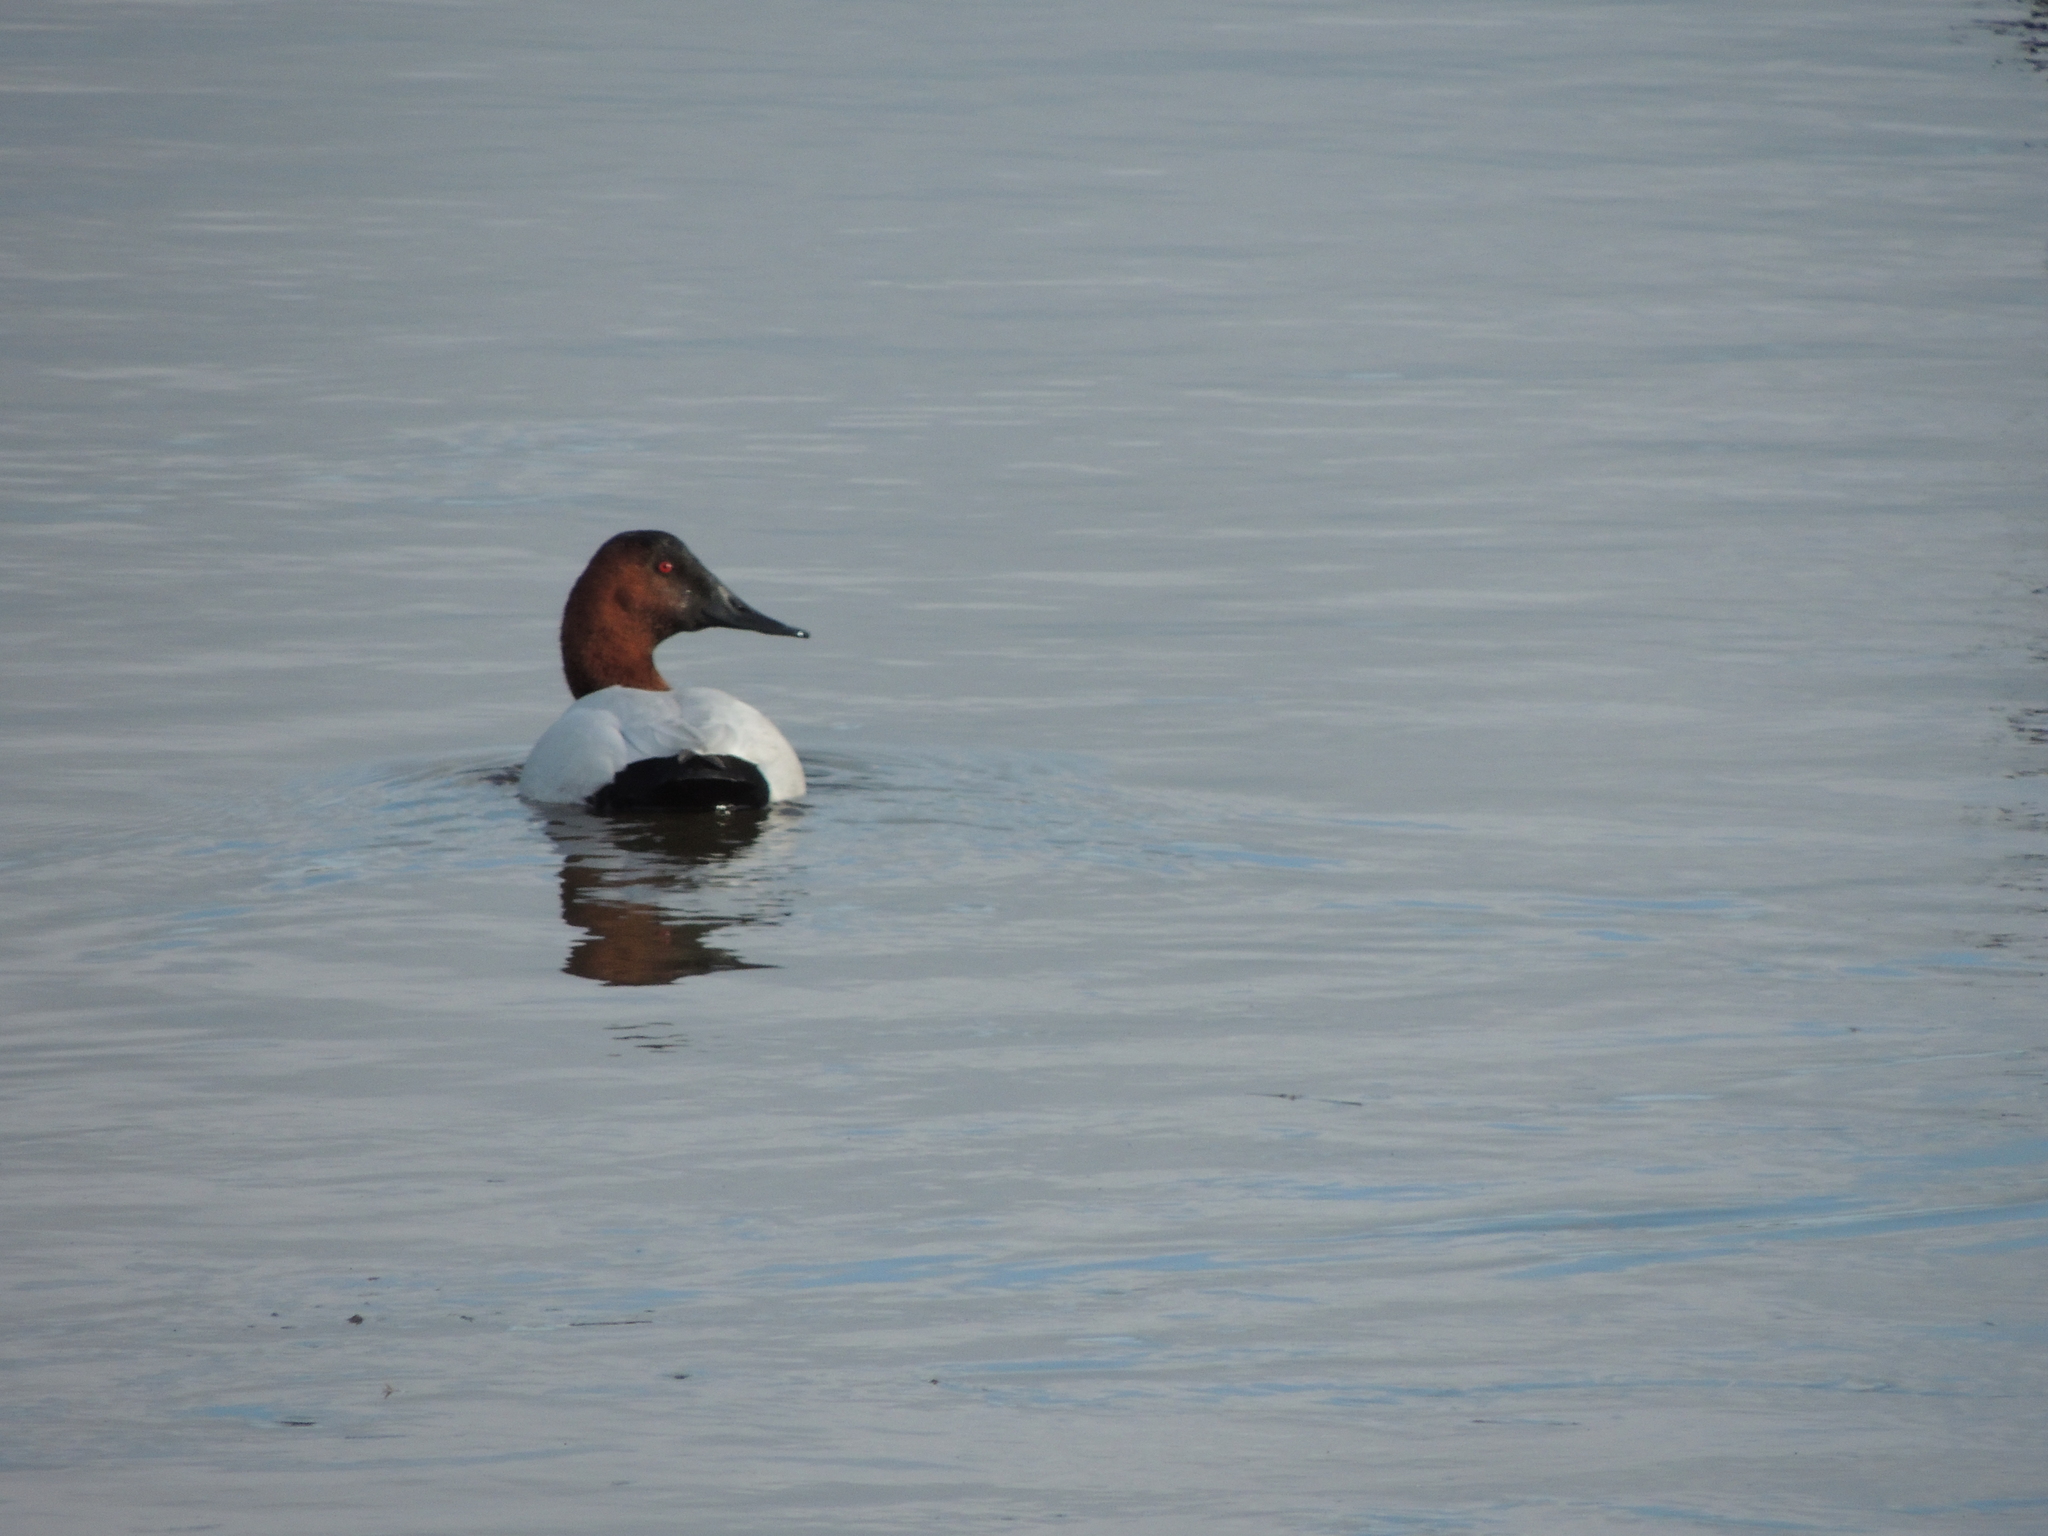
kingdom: Animalia
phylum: Chordata
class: Aves
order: Anseriformes
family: Anatidae
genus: Aythya
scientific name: Aythya valisineria
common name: Canvasback
